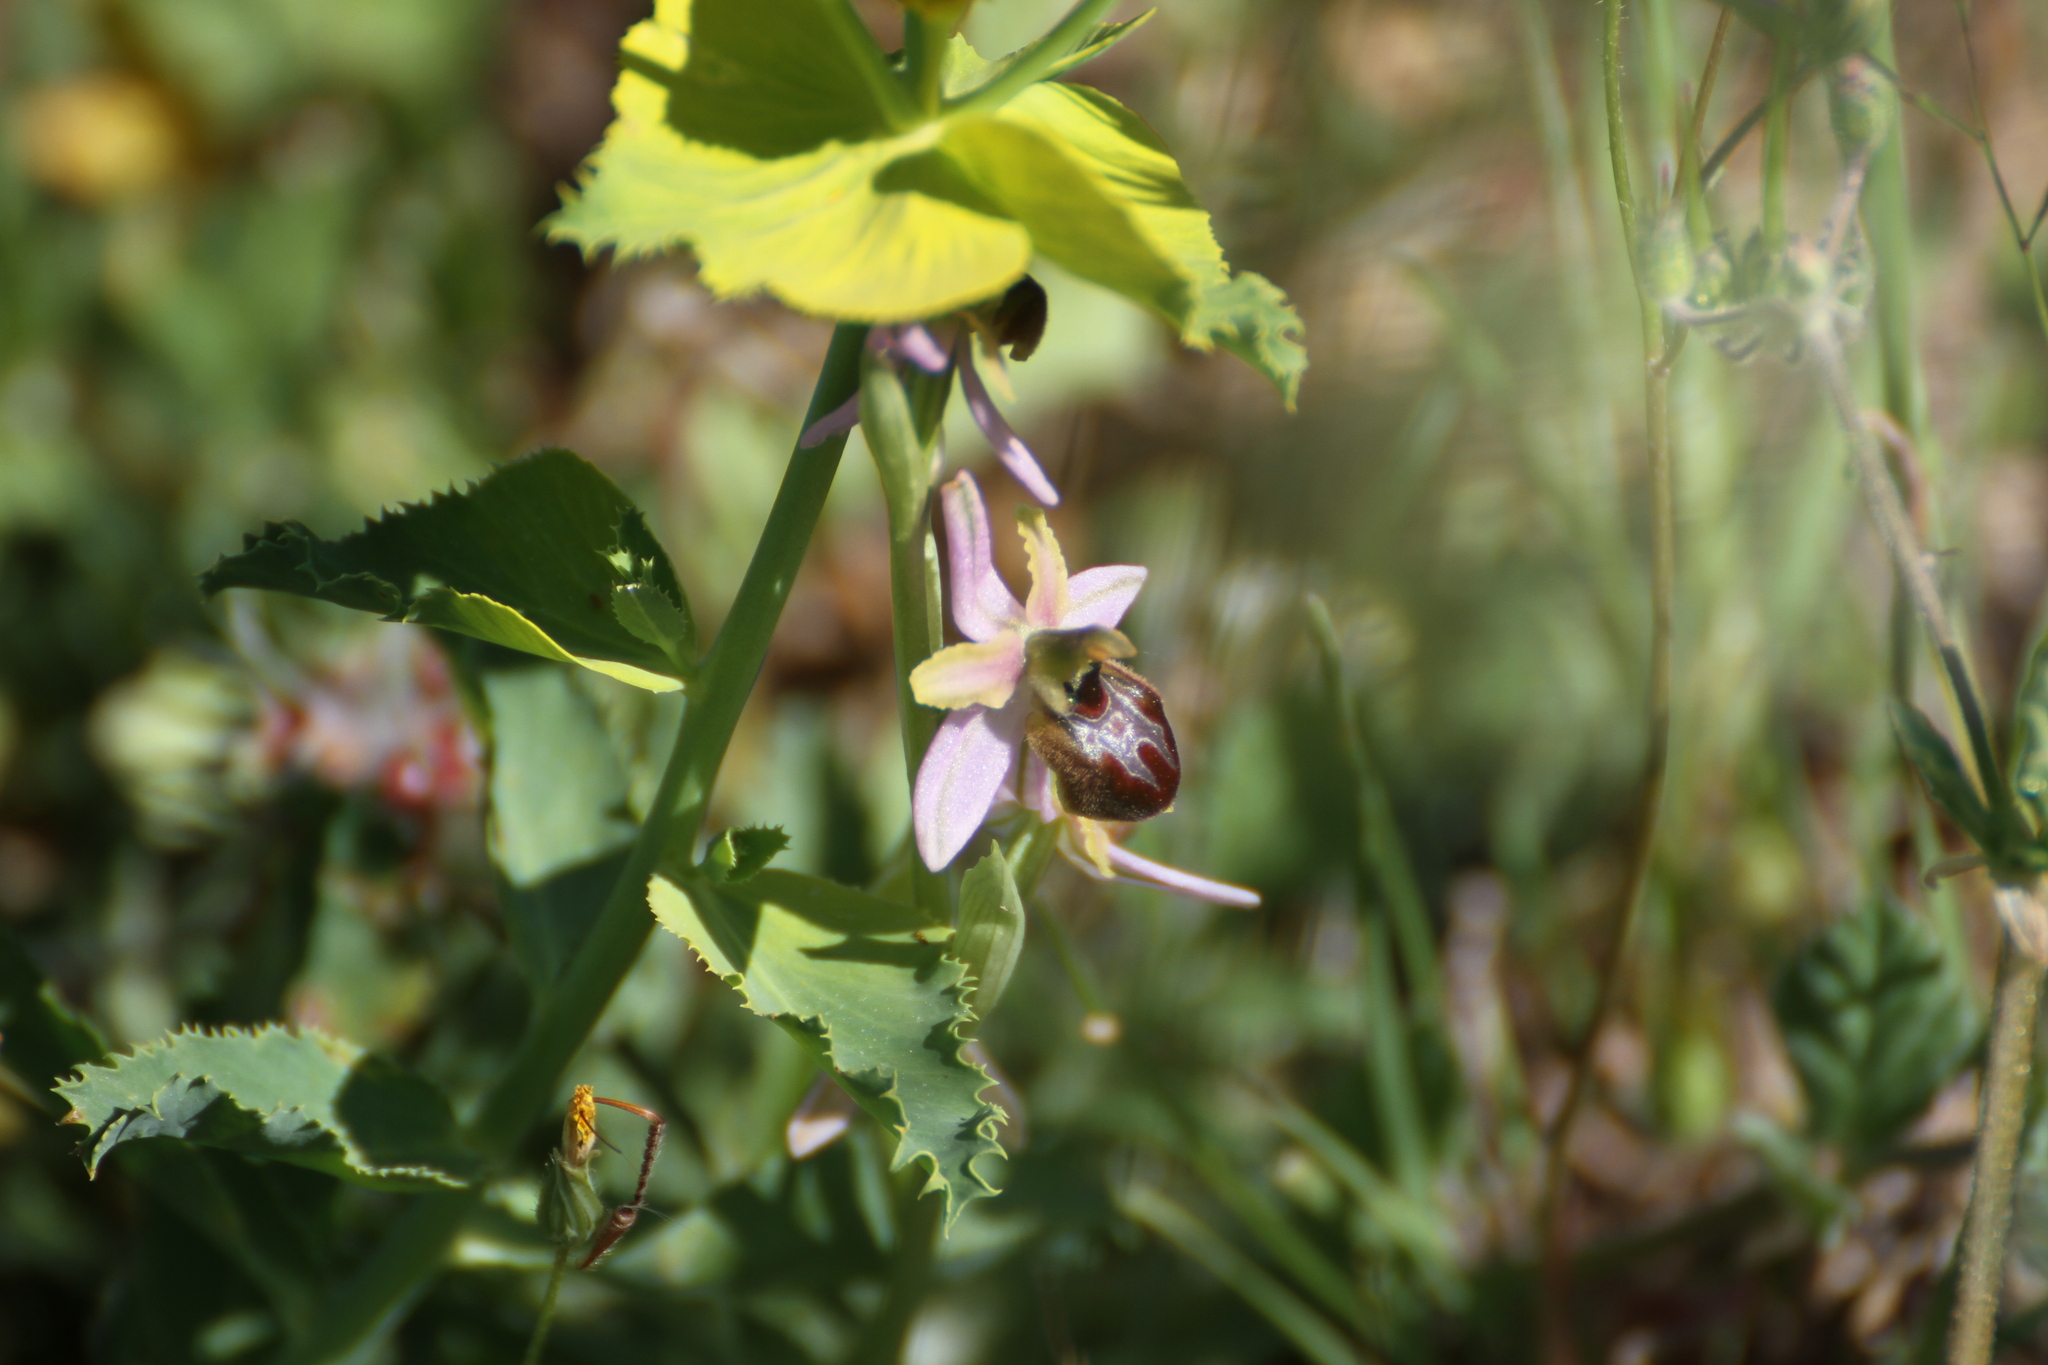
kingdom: Plantae
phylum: Tracheophyta
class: Liliopsida
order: Asparagales
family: Orchidaceae
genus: Ophrys
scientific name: Ophrys arachnitiformis
